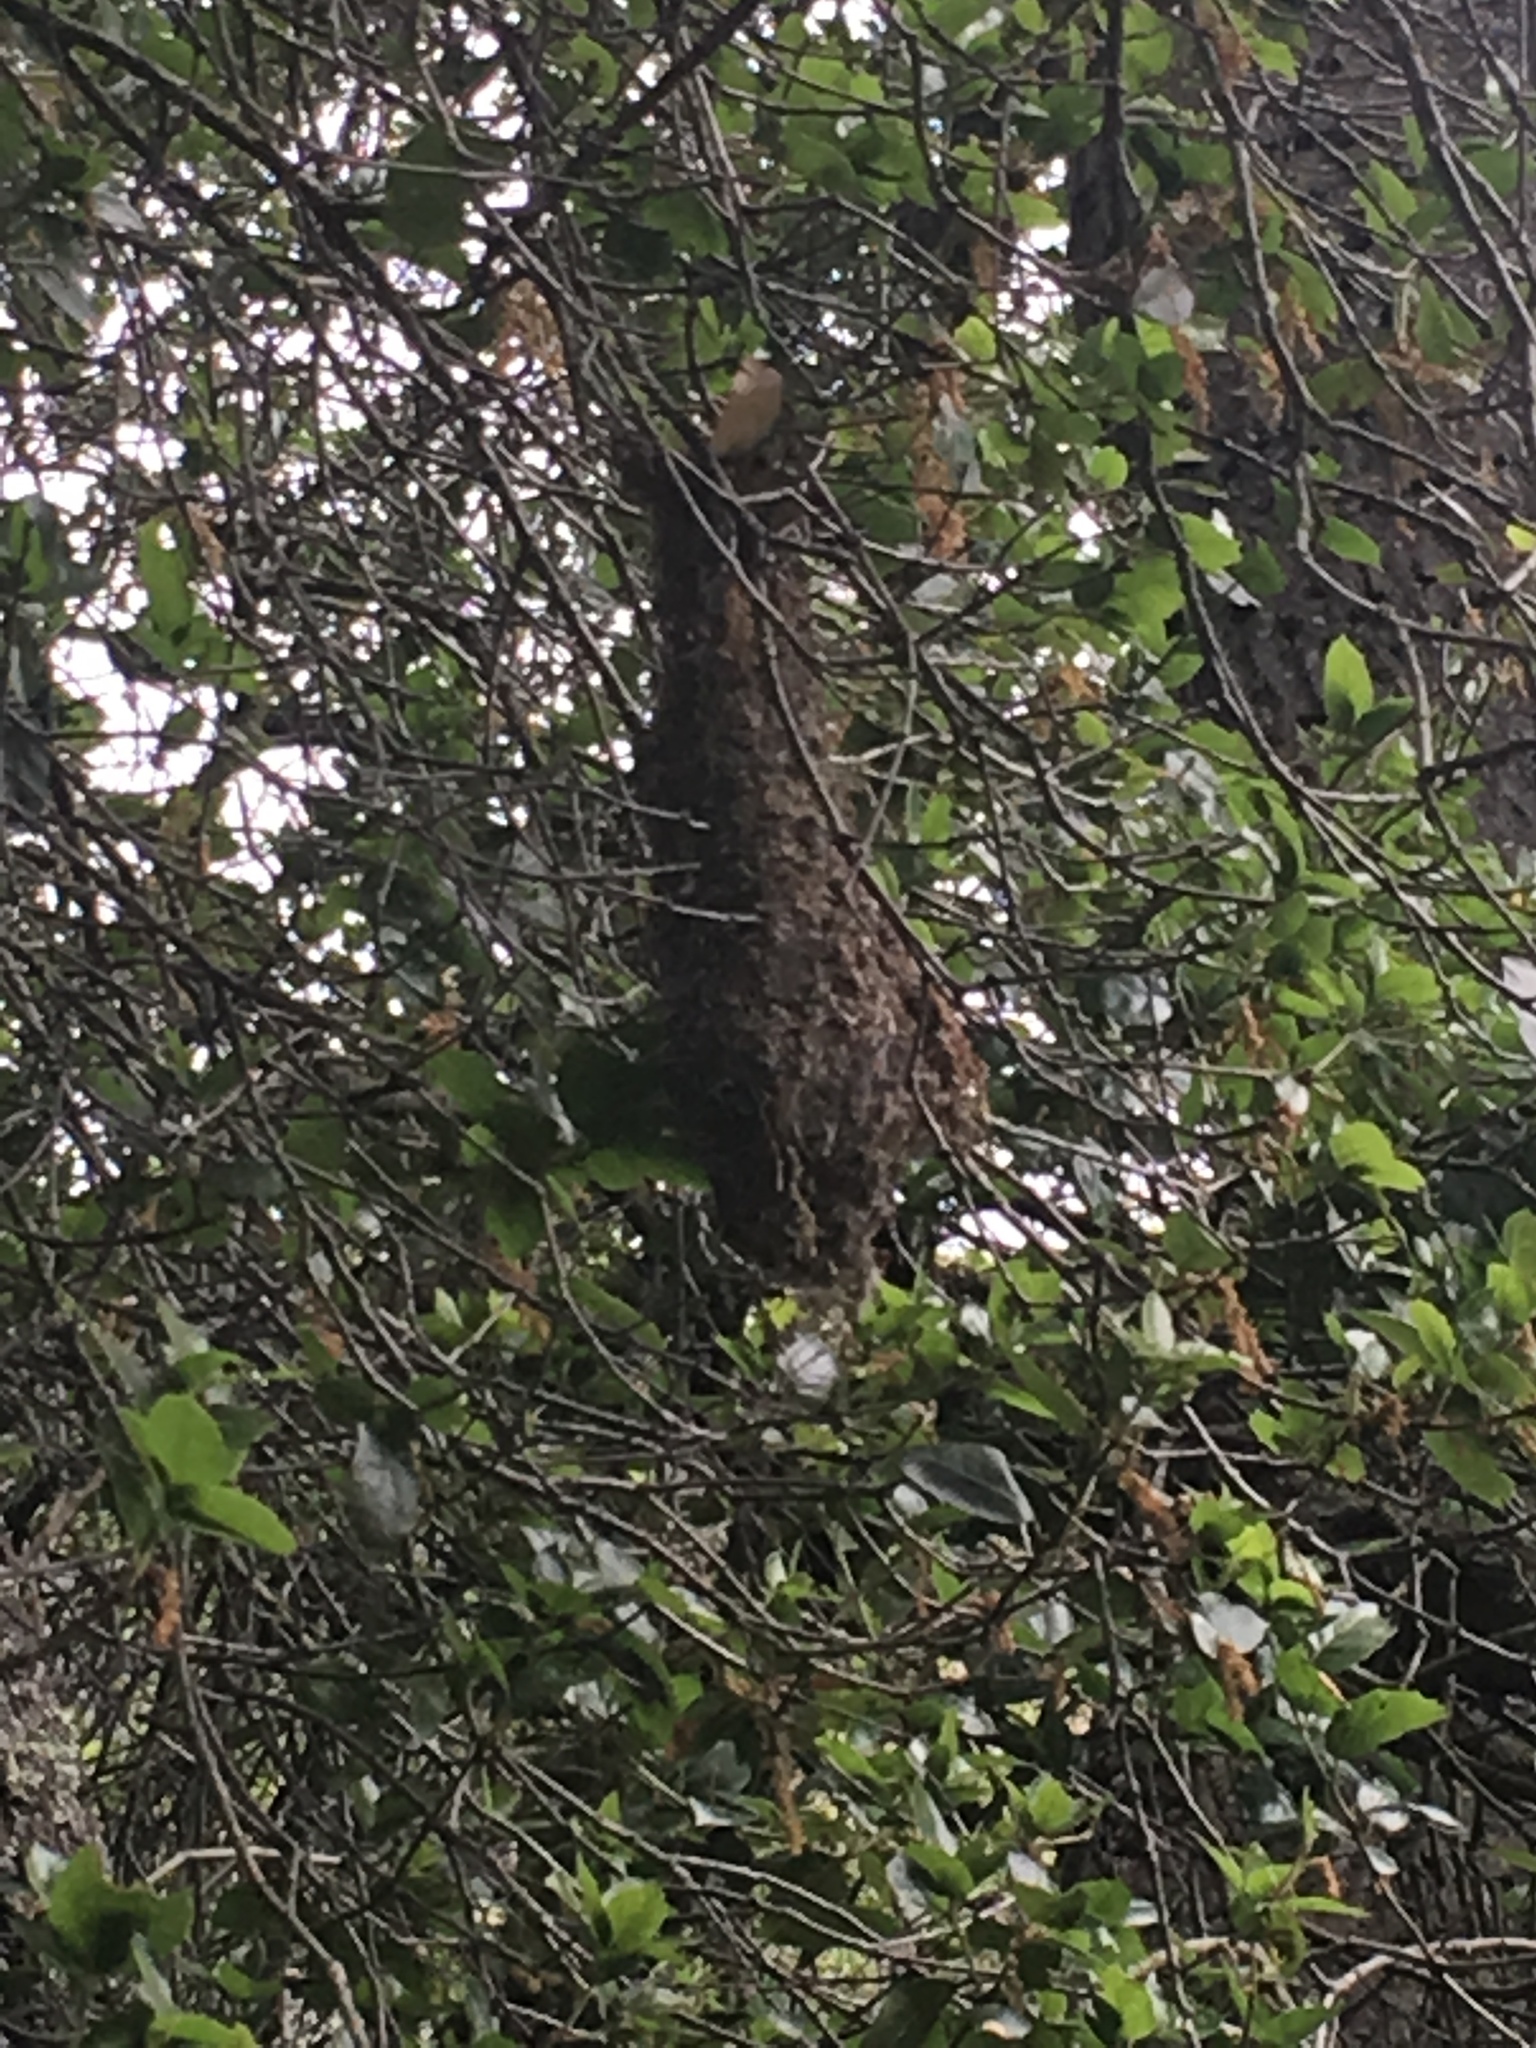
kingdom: Animalia
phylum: Chordata
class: Aves
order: Passeriformes
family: Aegithalidae
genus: Psaltriparus
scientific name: Psaltriparus minimus
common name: American bushtit
